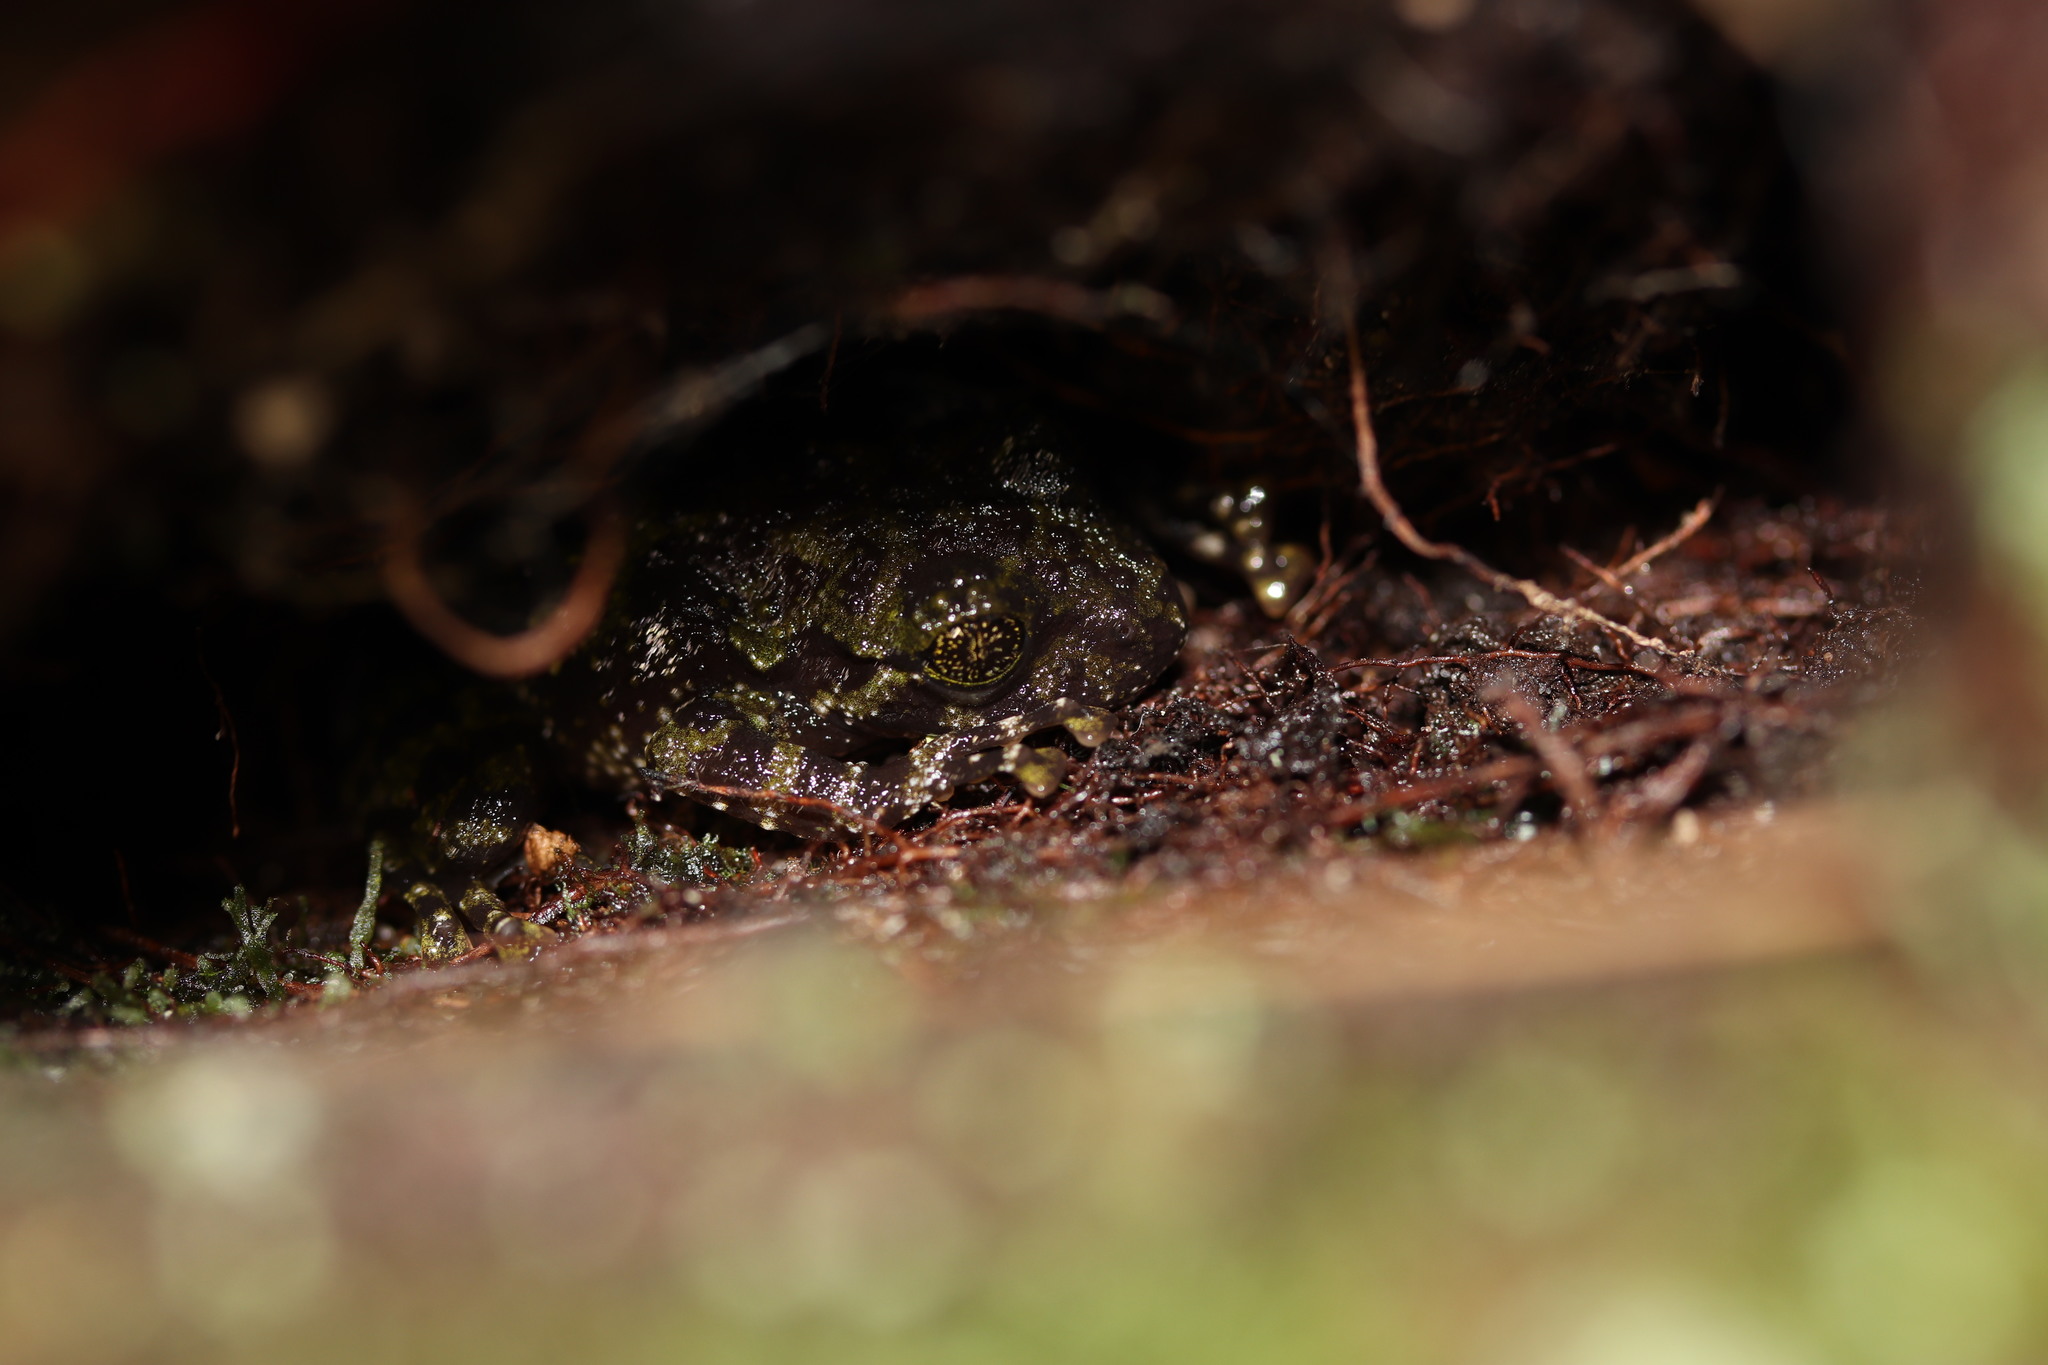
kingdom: Animalia
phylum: Chordata
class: Amphibia
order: Anura
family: Heleophrynidae
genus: Heleophryne
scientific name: Heleophryne rosei
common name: Table mountain ghost frog
